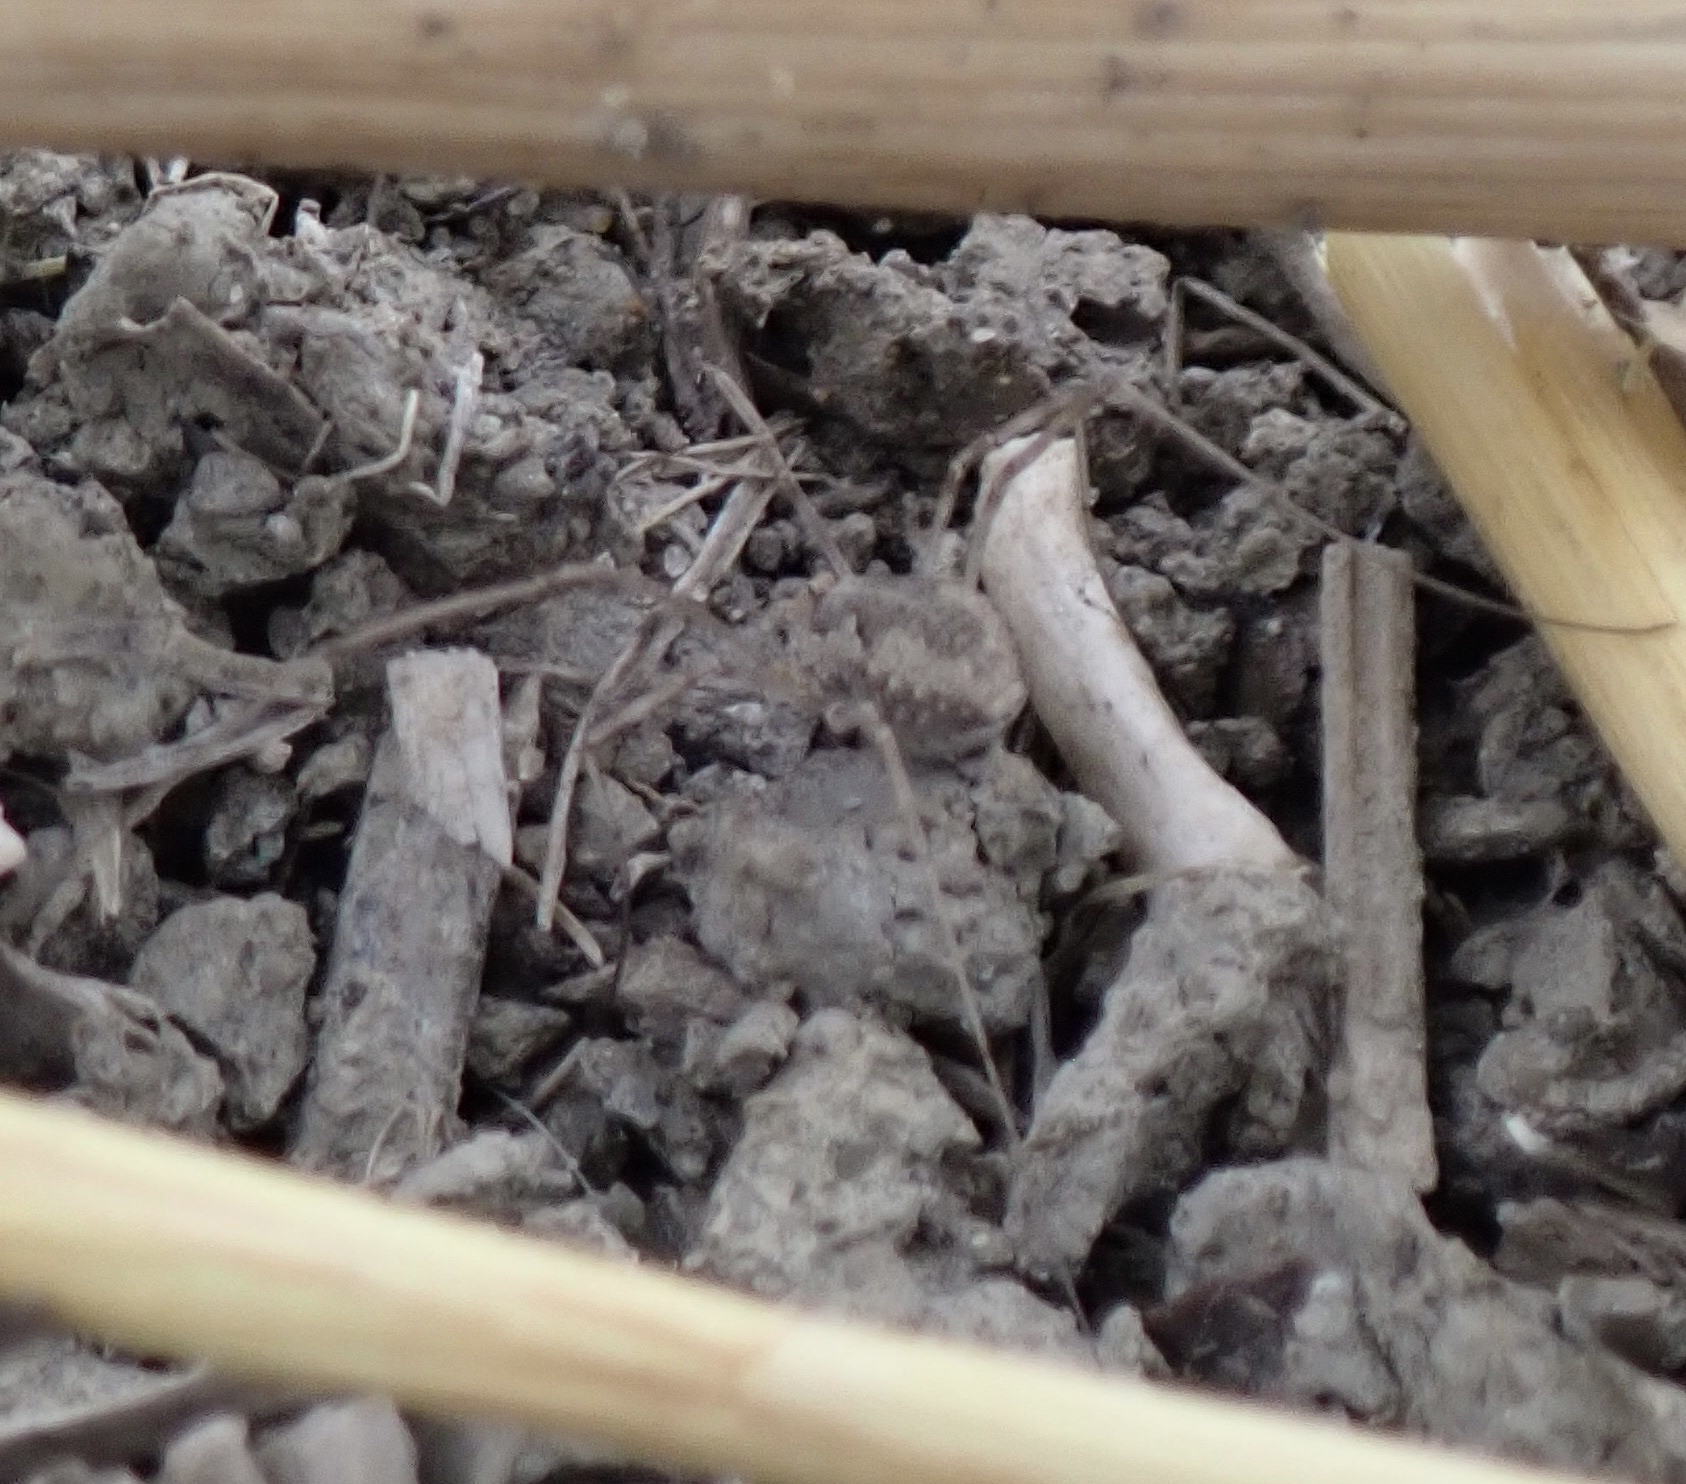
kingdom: Animalia
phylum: Arthropoda
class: Arachnida
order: Opiliones
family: Phalangiidae
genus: Phalangium
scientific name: Phalangium opilio
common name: Daddy longleg
